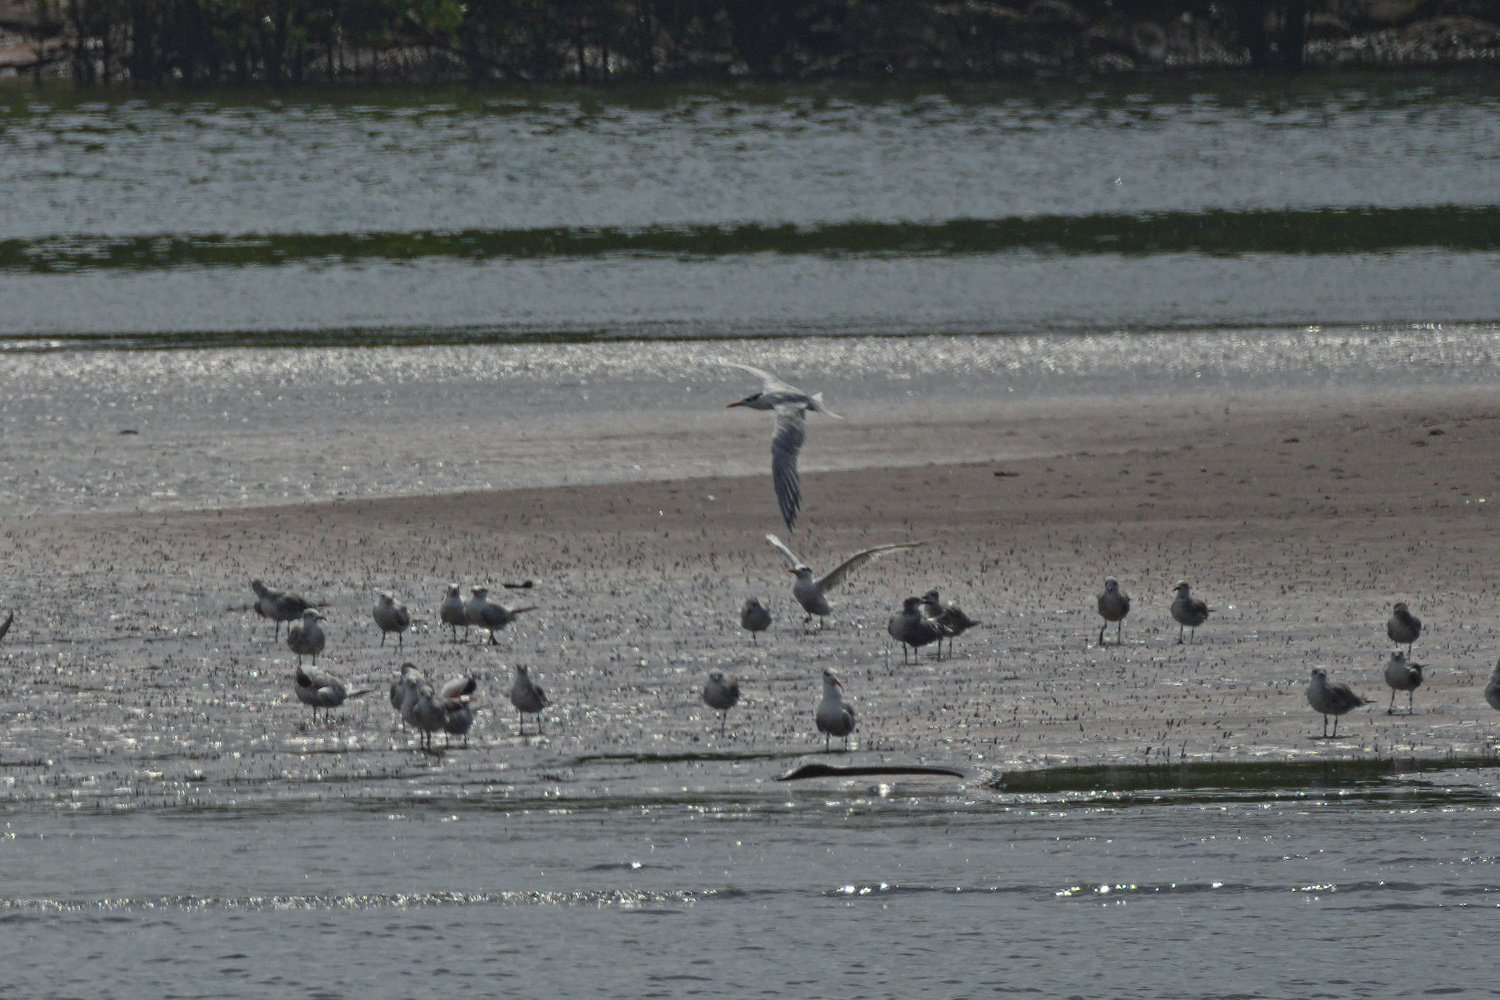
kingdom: Animalia
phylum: Chordata
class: Aves
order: Charadriiformes
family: Laridae
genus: Thalasseus
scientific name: Thalasseus maximus
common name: Royal tern
